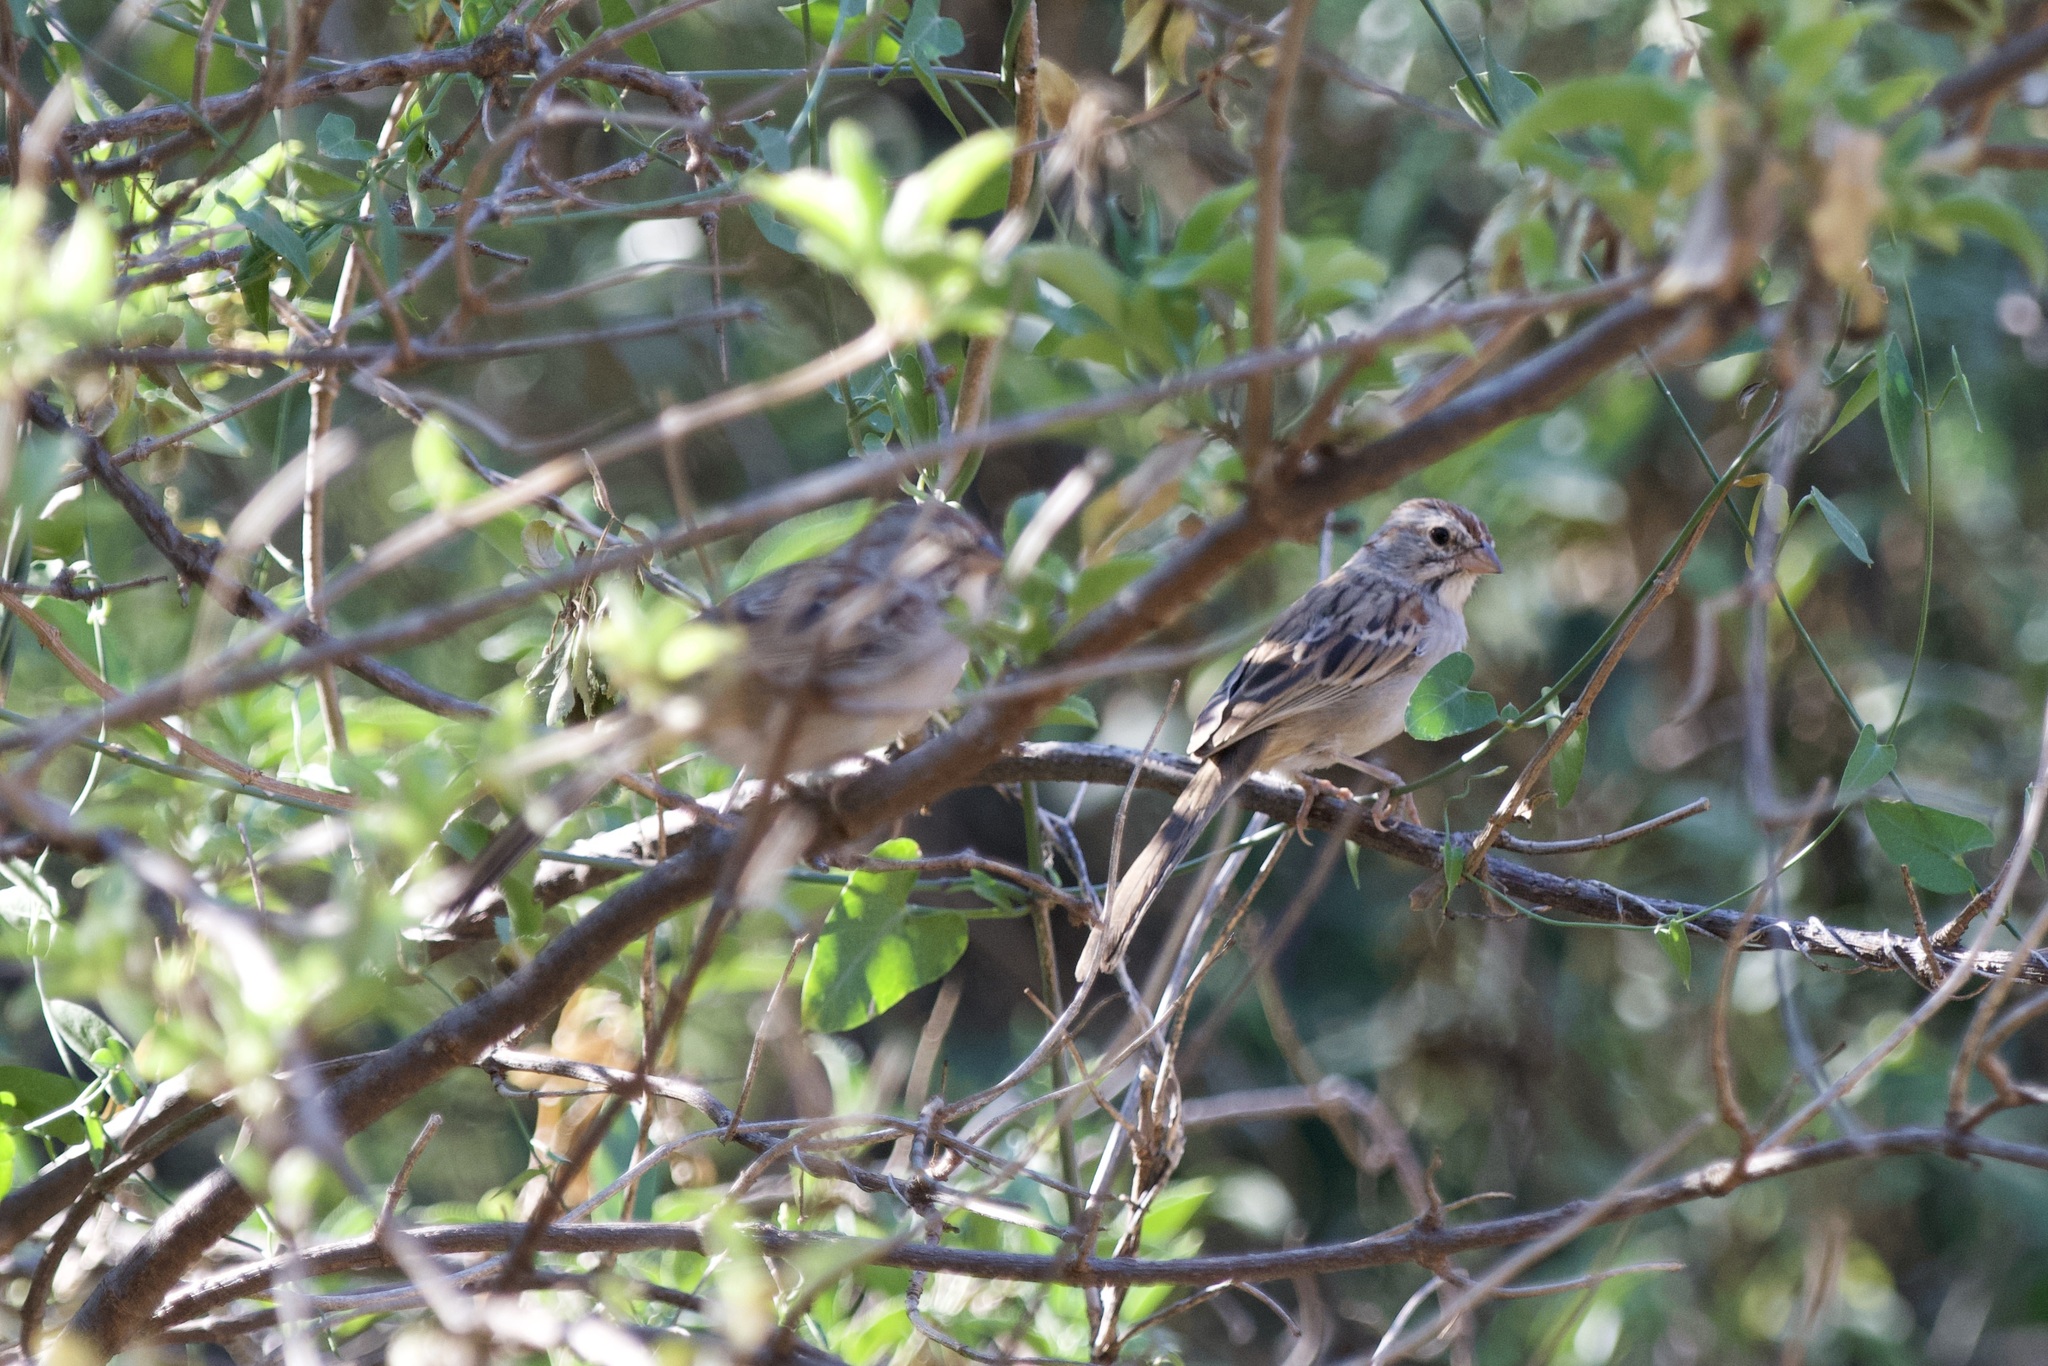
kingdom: Animalia
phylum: Chordata
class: Aves
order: Passeriformes
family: Passerellidae
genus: Peucaea
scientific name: Peucaea carpalis
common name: Rufous-winged sparrow
